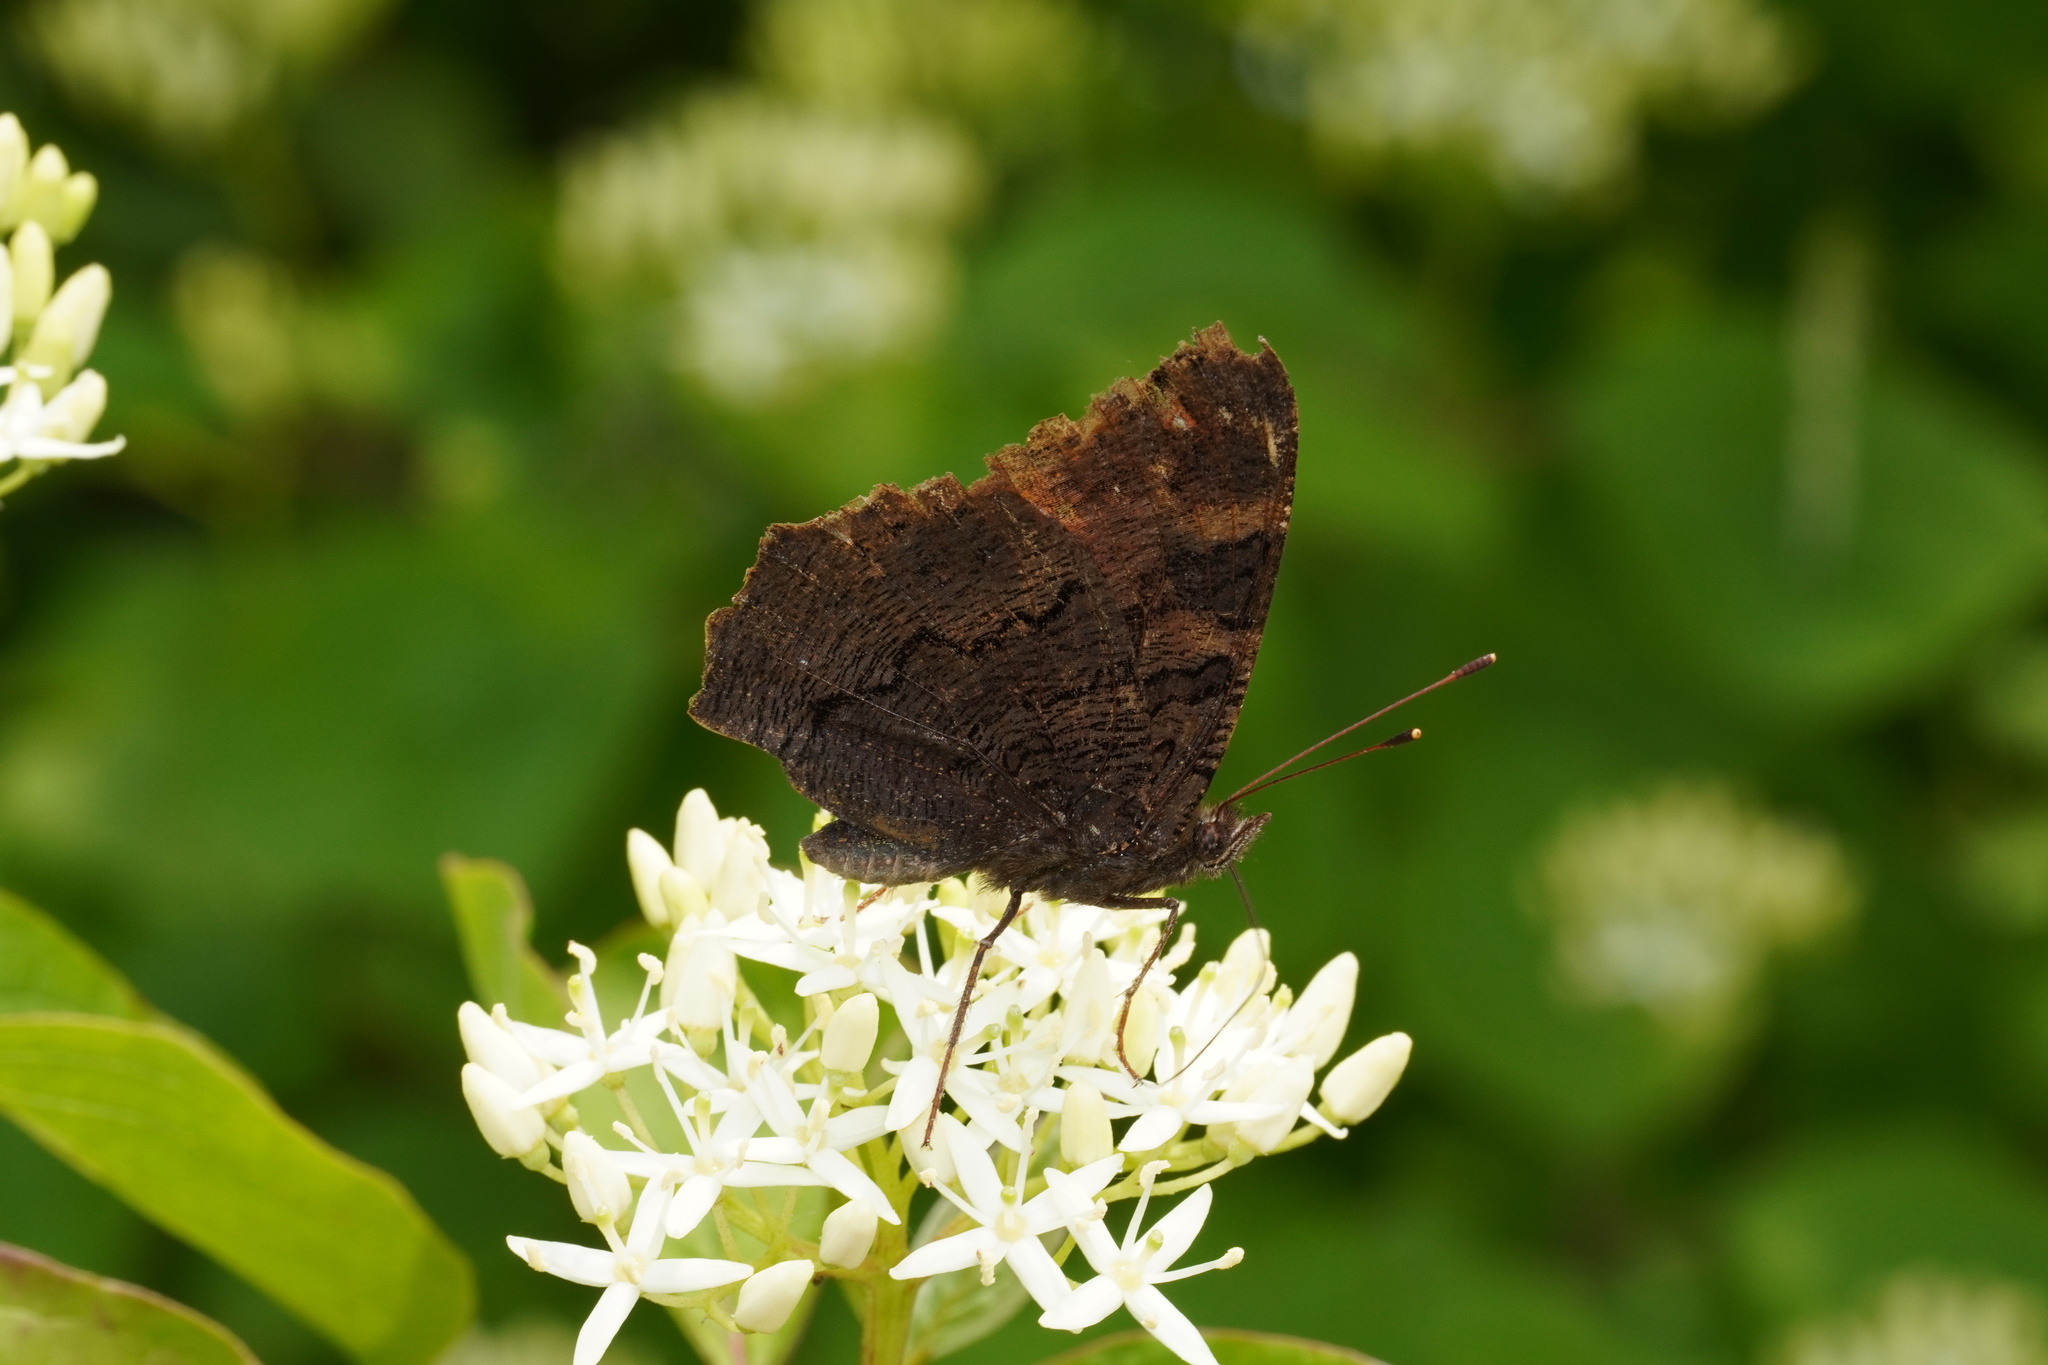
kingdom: Animalia
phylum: Arthropoda
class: Insecta
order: Lepidoptera
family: Nymphalidae
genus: Aglais
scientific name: Aglais io
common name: Peacock
